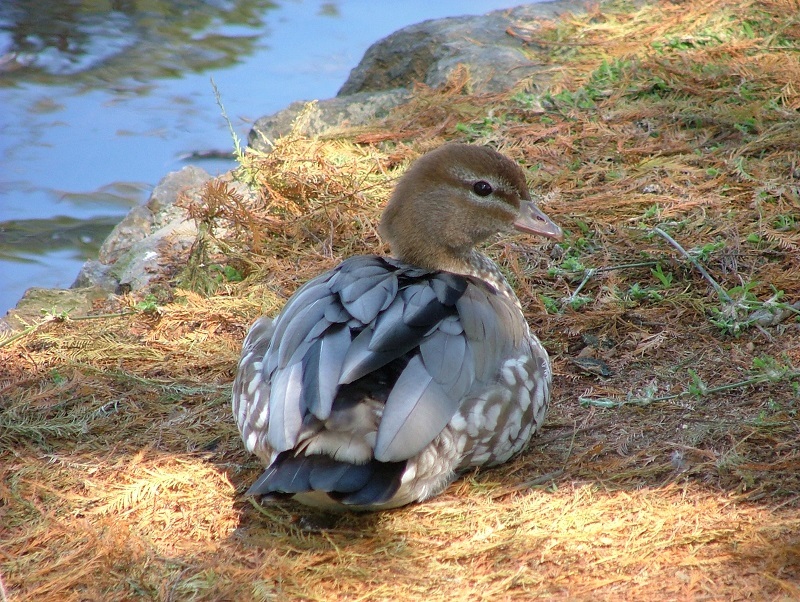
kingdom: Animalia
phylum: Chordata
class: Aves
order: Anseriformes
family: Anatidae
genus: Chenonetta
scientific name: Chenonetta jubata
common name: Maned duck
